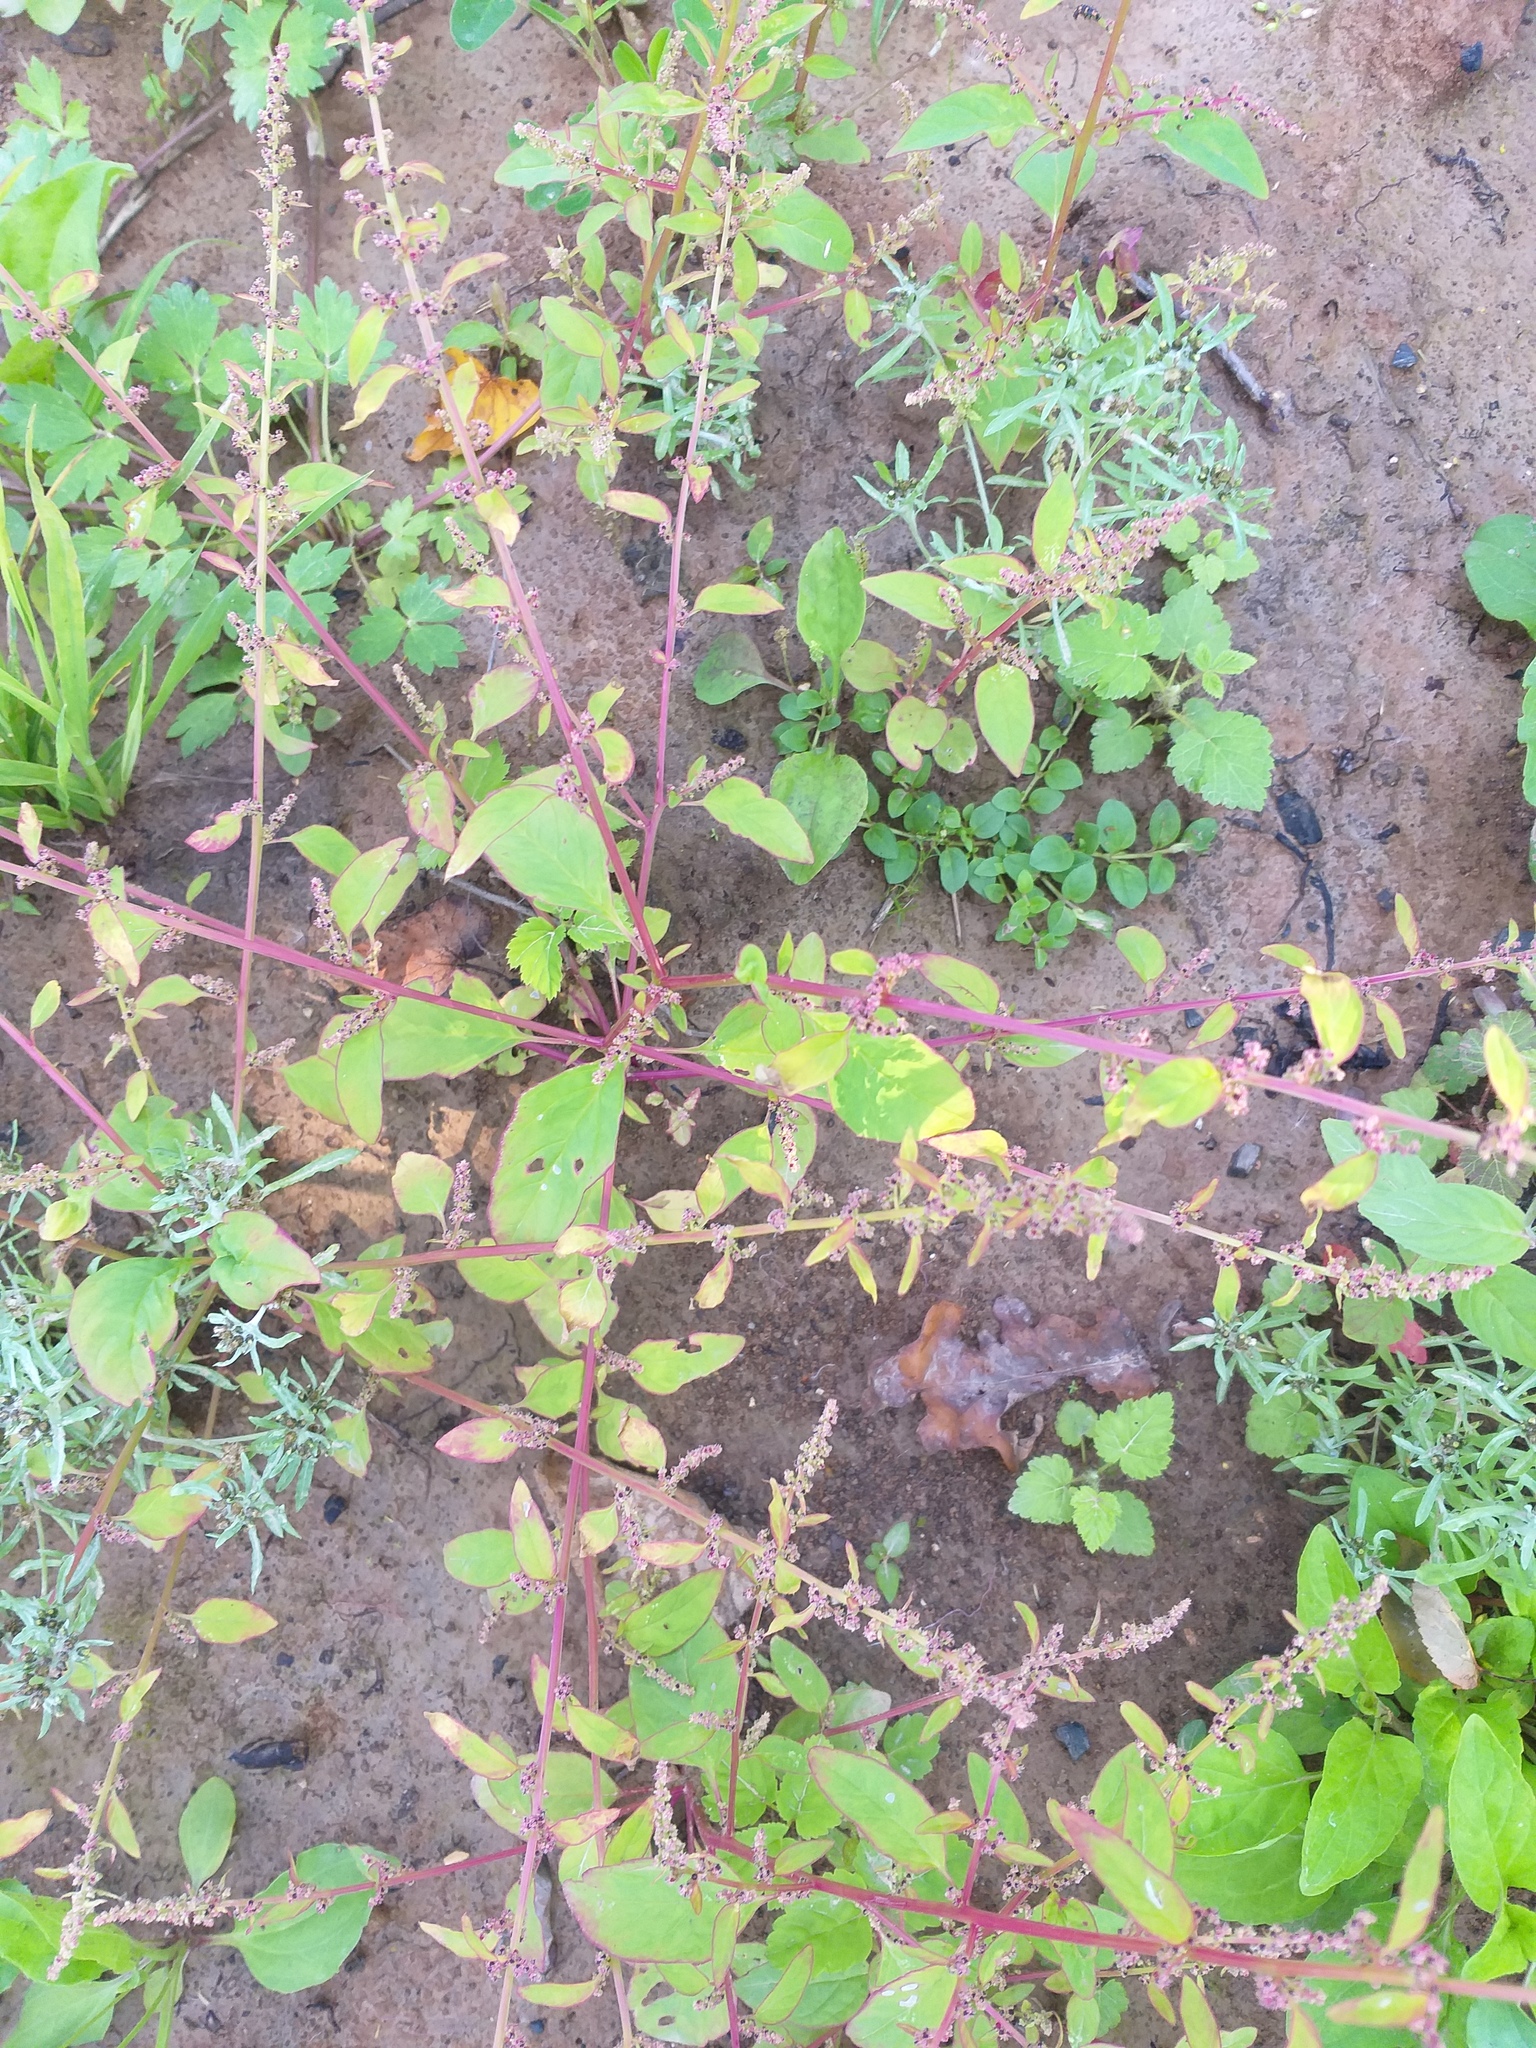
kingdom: Plantae
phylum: Tracheophyta
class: Magnoliopsida
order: Caryophyllales
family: Amaranthaceae
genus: Lipandra
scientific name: Lipandra polysperma
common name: Many-seed goosefoot
